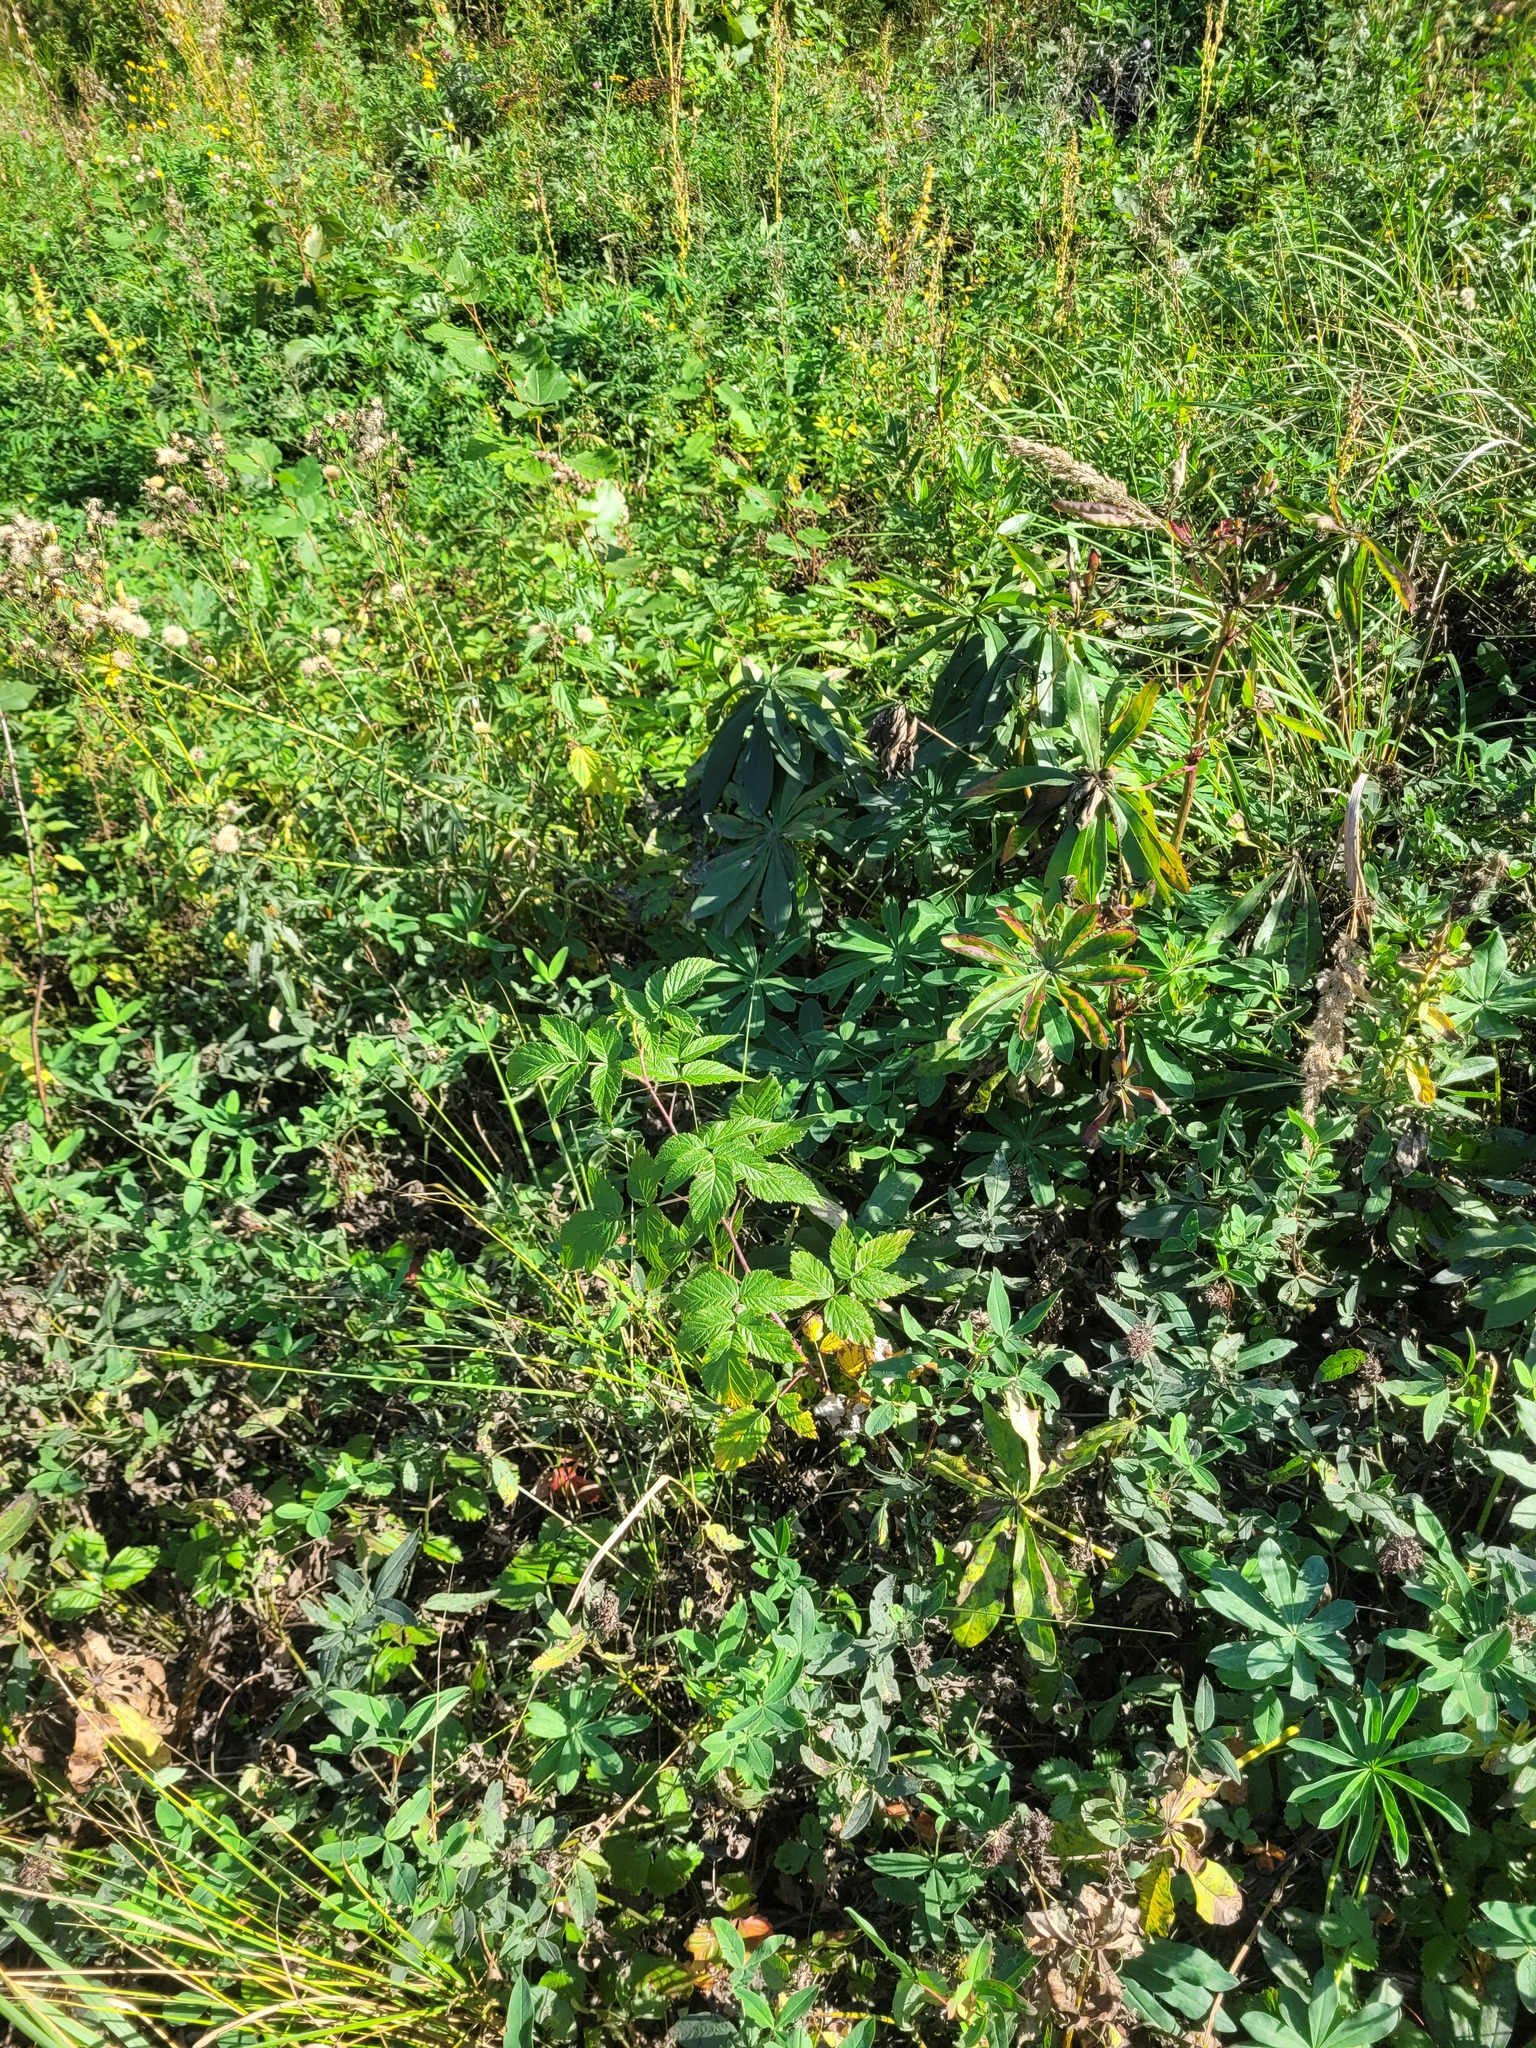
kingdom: Plantae
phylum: Tracheophyta
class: Magnoliopsida
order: Rosales
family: Rosaceae
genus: Rubus
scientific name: Rubus idaeus
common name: Raspberry
